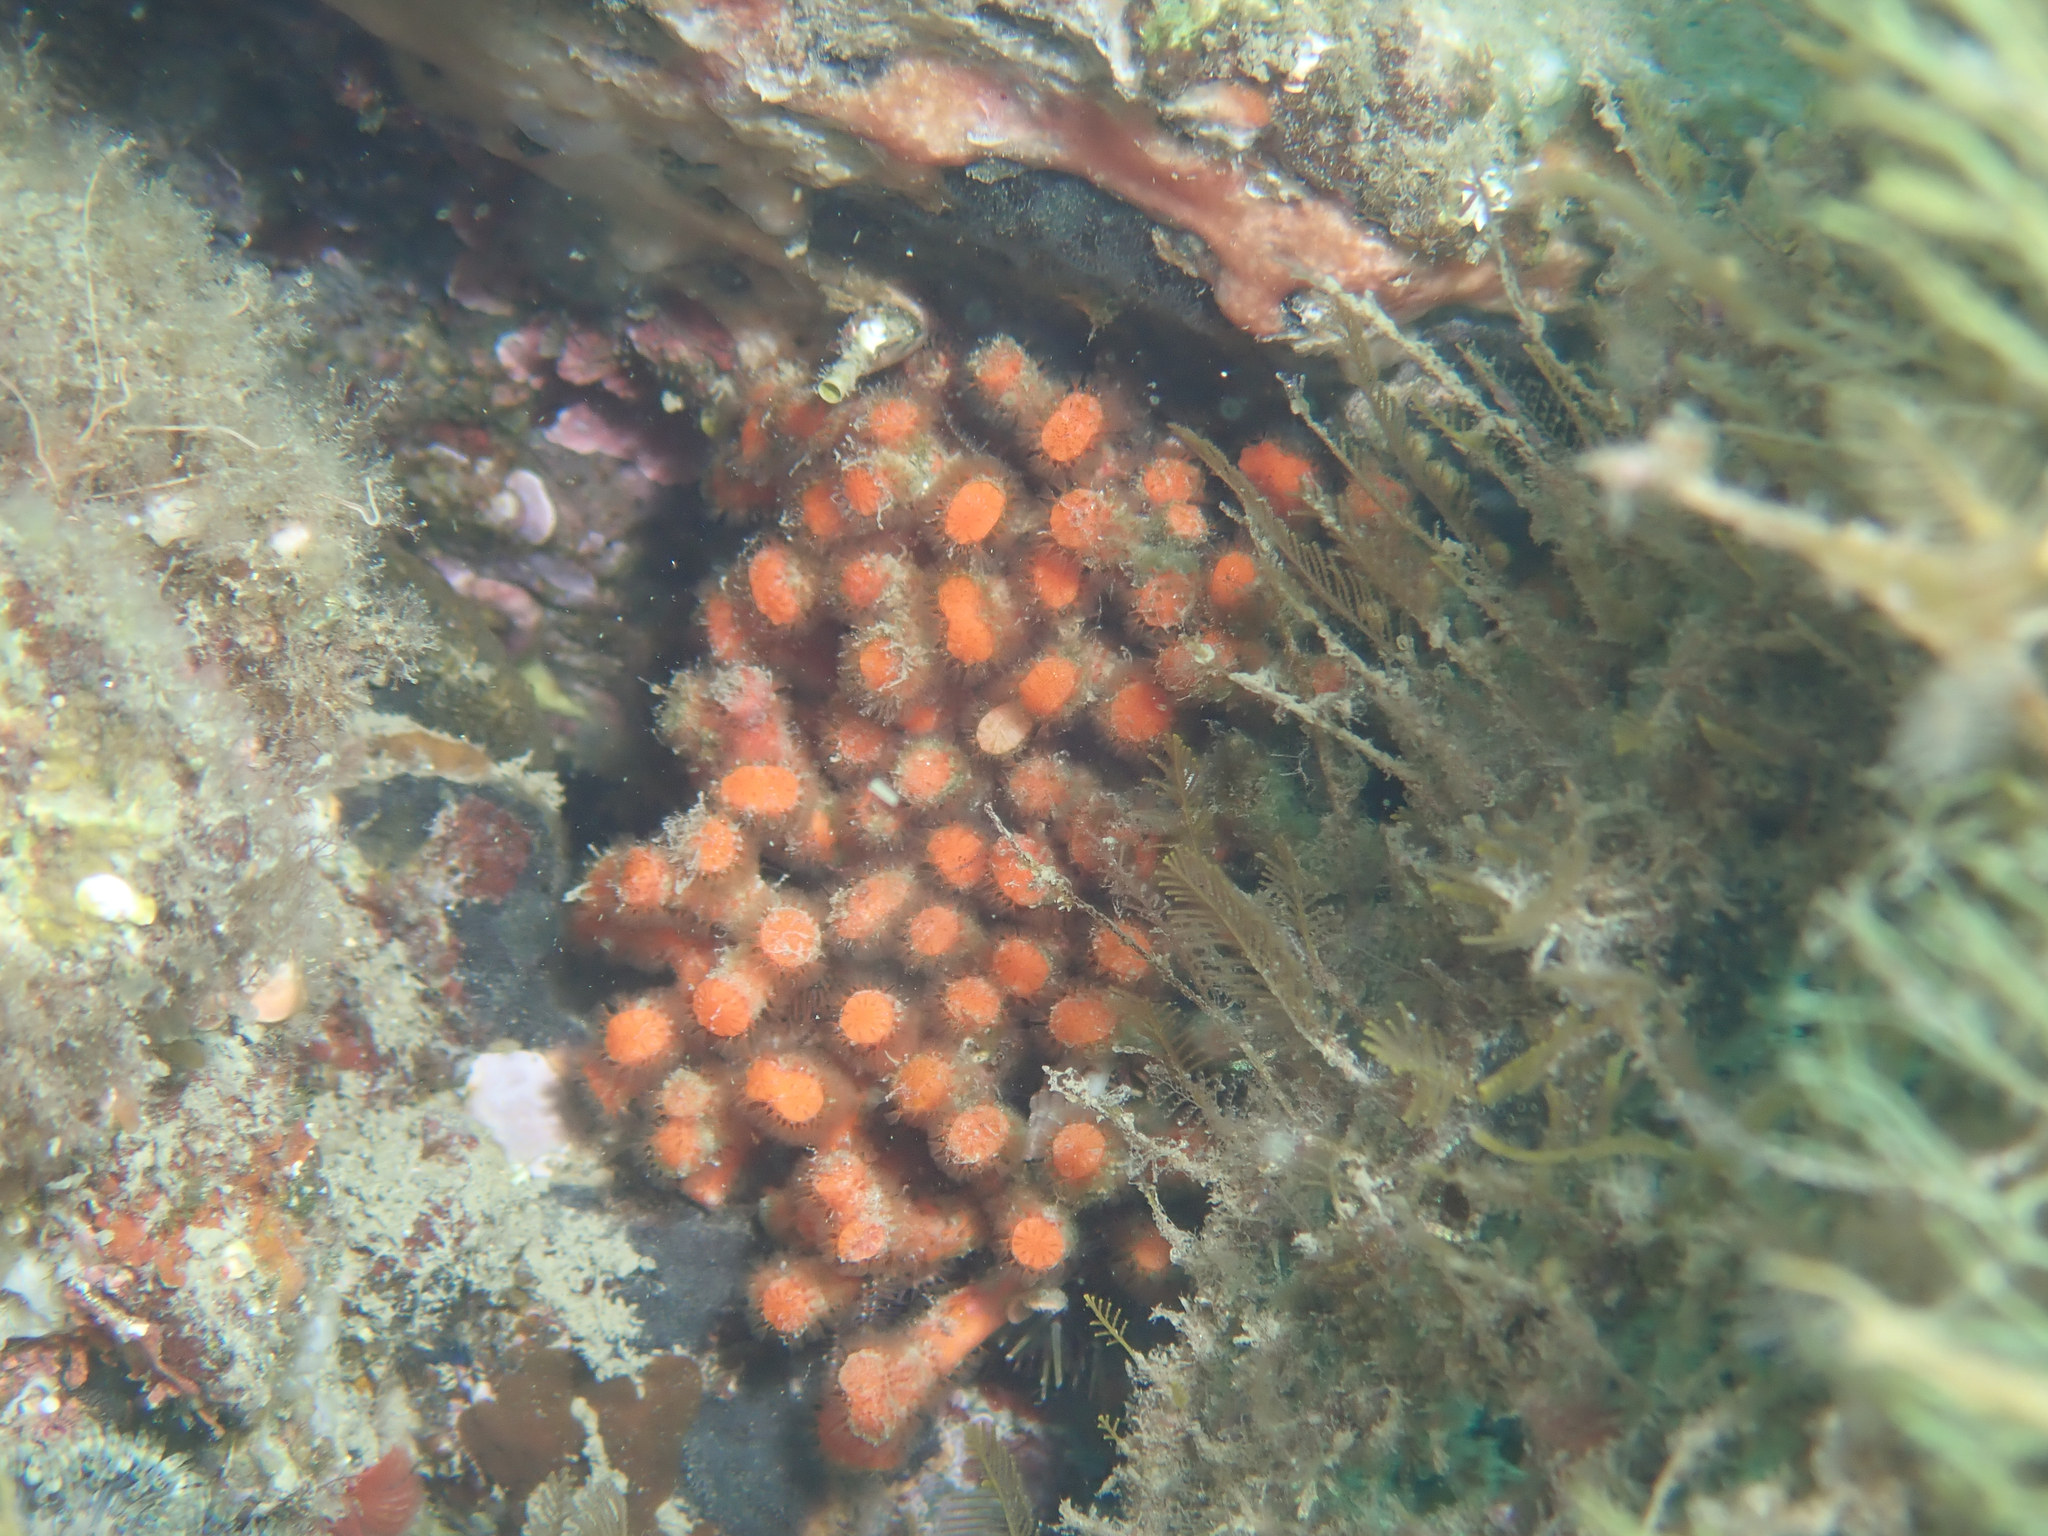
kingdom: Animalia
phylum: Bryozoa
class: Gymnolaemata
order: Cheilostomatida
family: Myriaporidae
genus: Myriapora
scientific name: Myriapora truncata
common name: False coral
